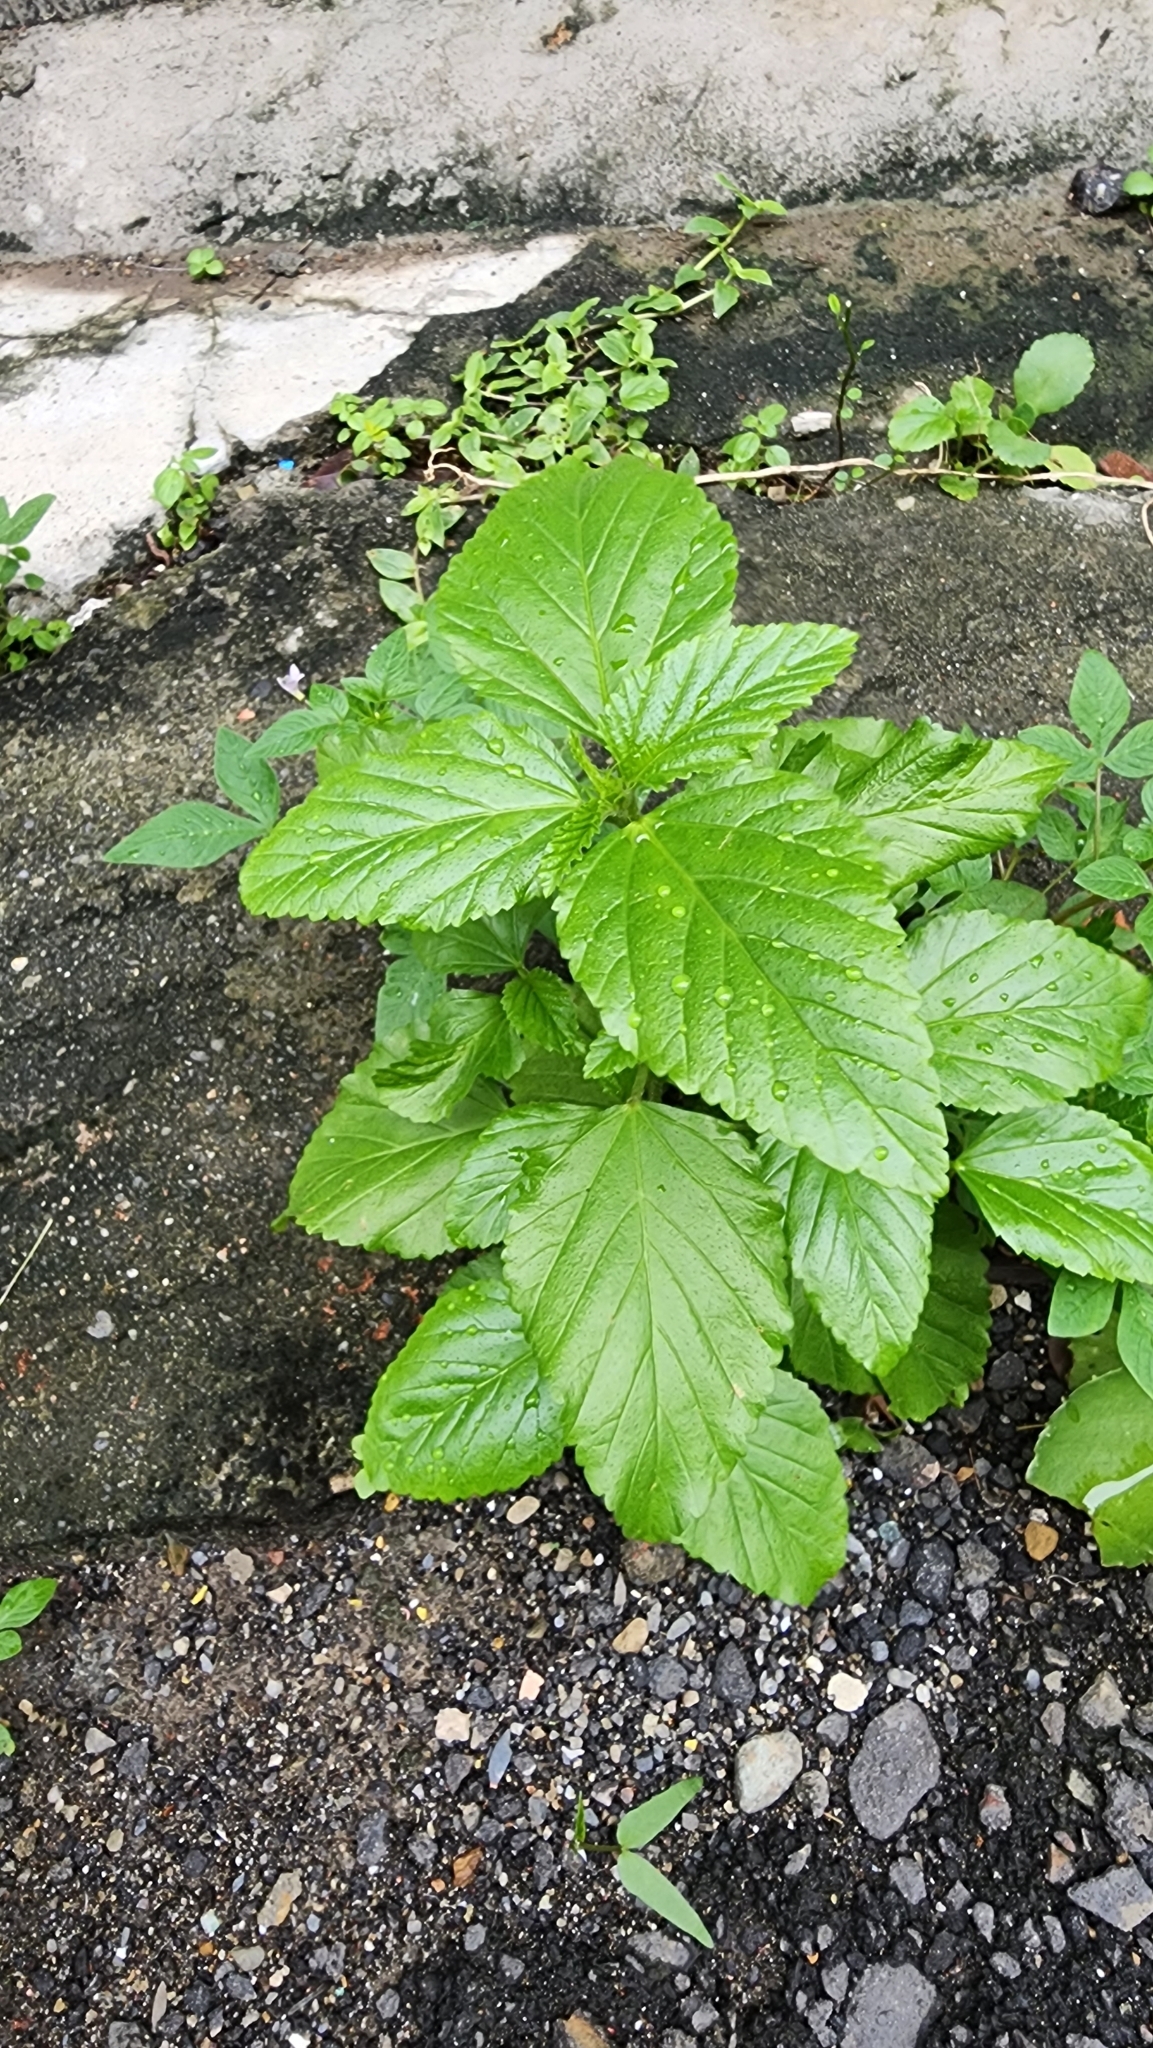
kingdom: Plantae
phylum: Tracheophyta
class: Magnoliopsida
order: Malvales
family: Malvaceae
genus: Malvastrum
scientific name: Malvastrum coromandelianum
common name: Threelobe false mallow
